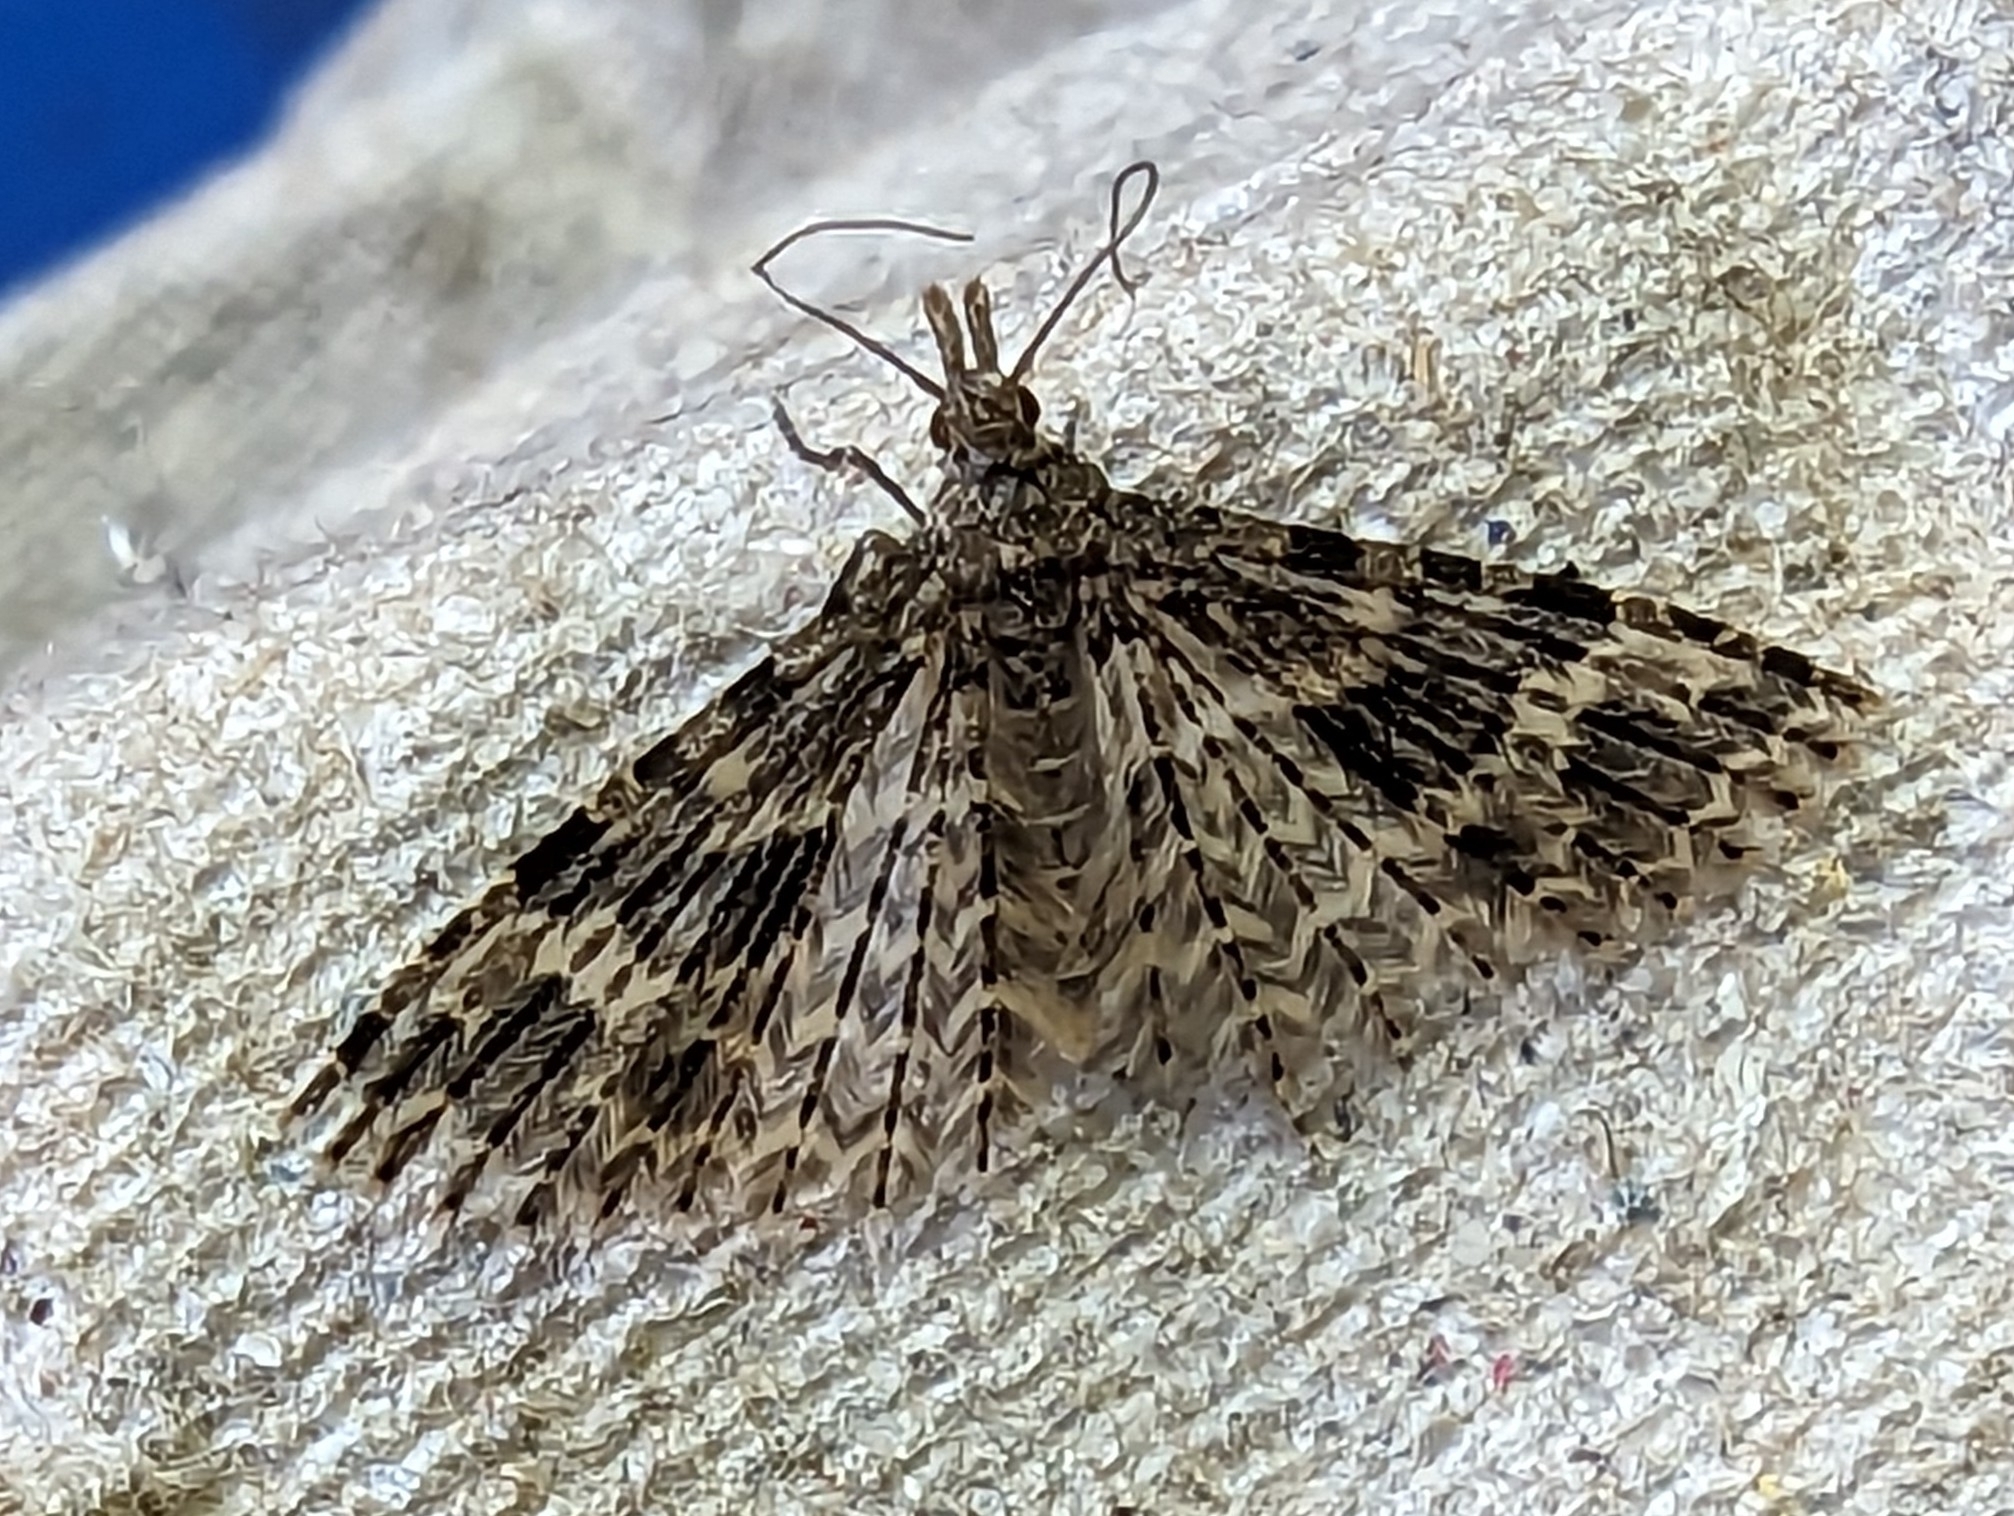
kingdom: Animalia
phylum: Arthropoda
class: Insecta
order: Lepidoptera
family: Alucitidae
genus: Alucita
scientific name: Alucita hexadactyla
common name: Twenty-plume moth
